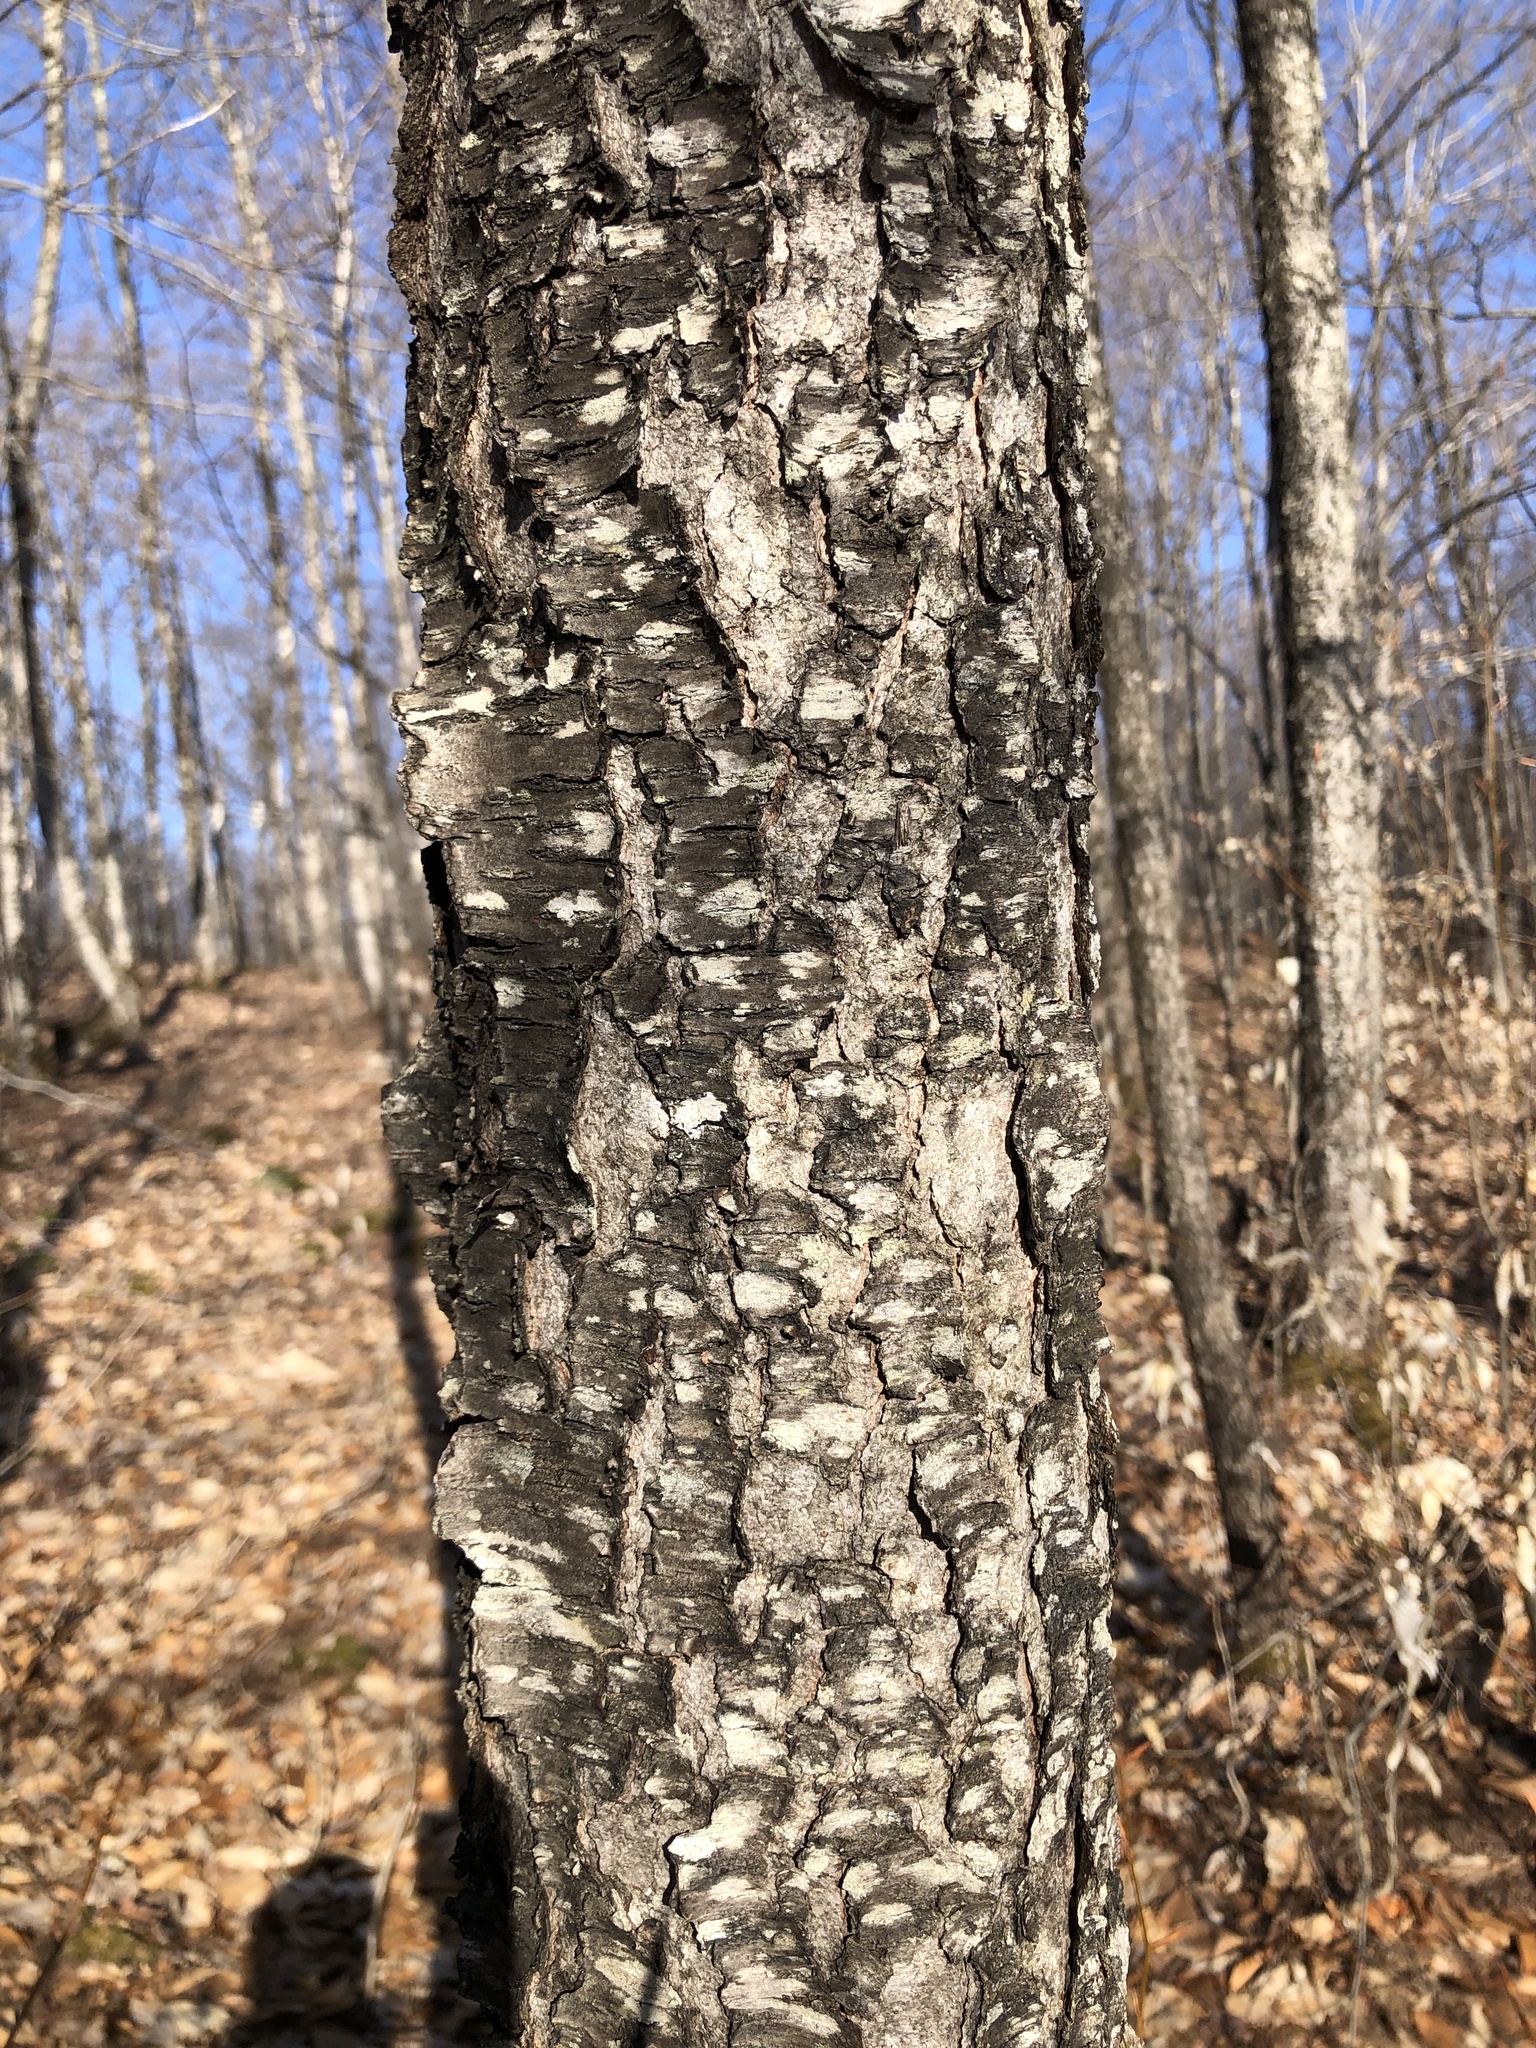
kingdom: Plantae
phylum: Tracheophyta
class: Magnoliopsida
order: Rosales
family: Rosaceae
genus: Prunus
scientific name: Prunus serotina
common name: Black cherry
